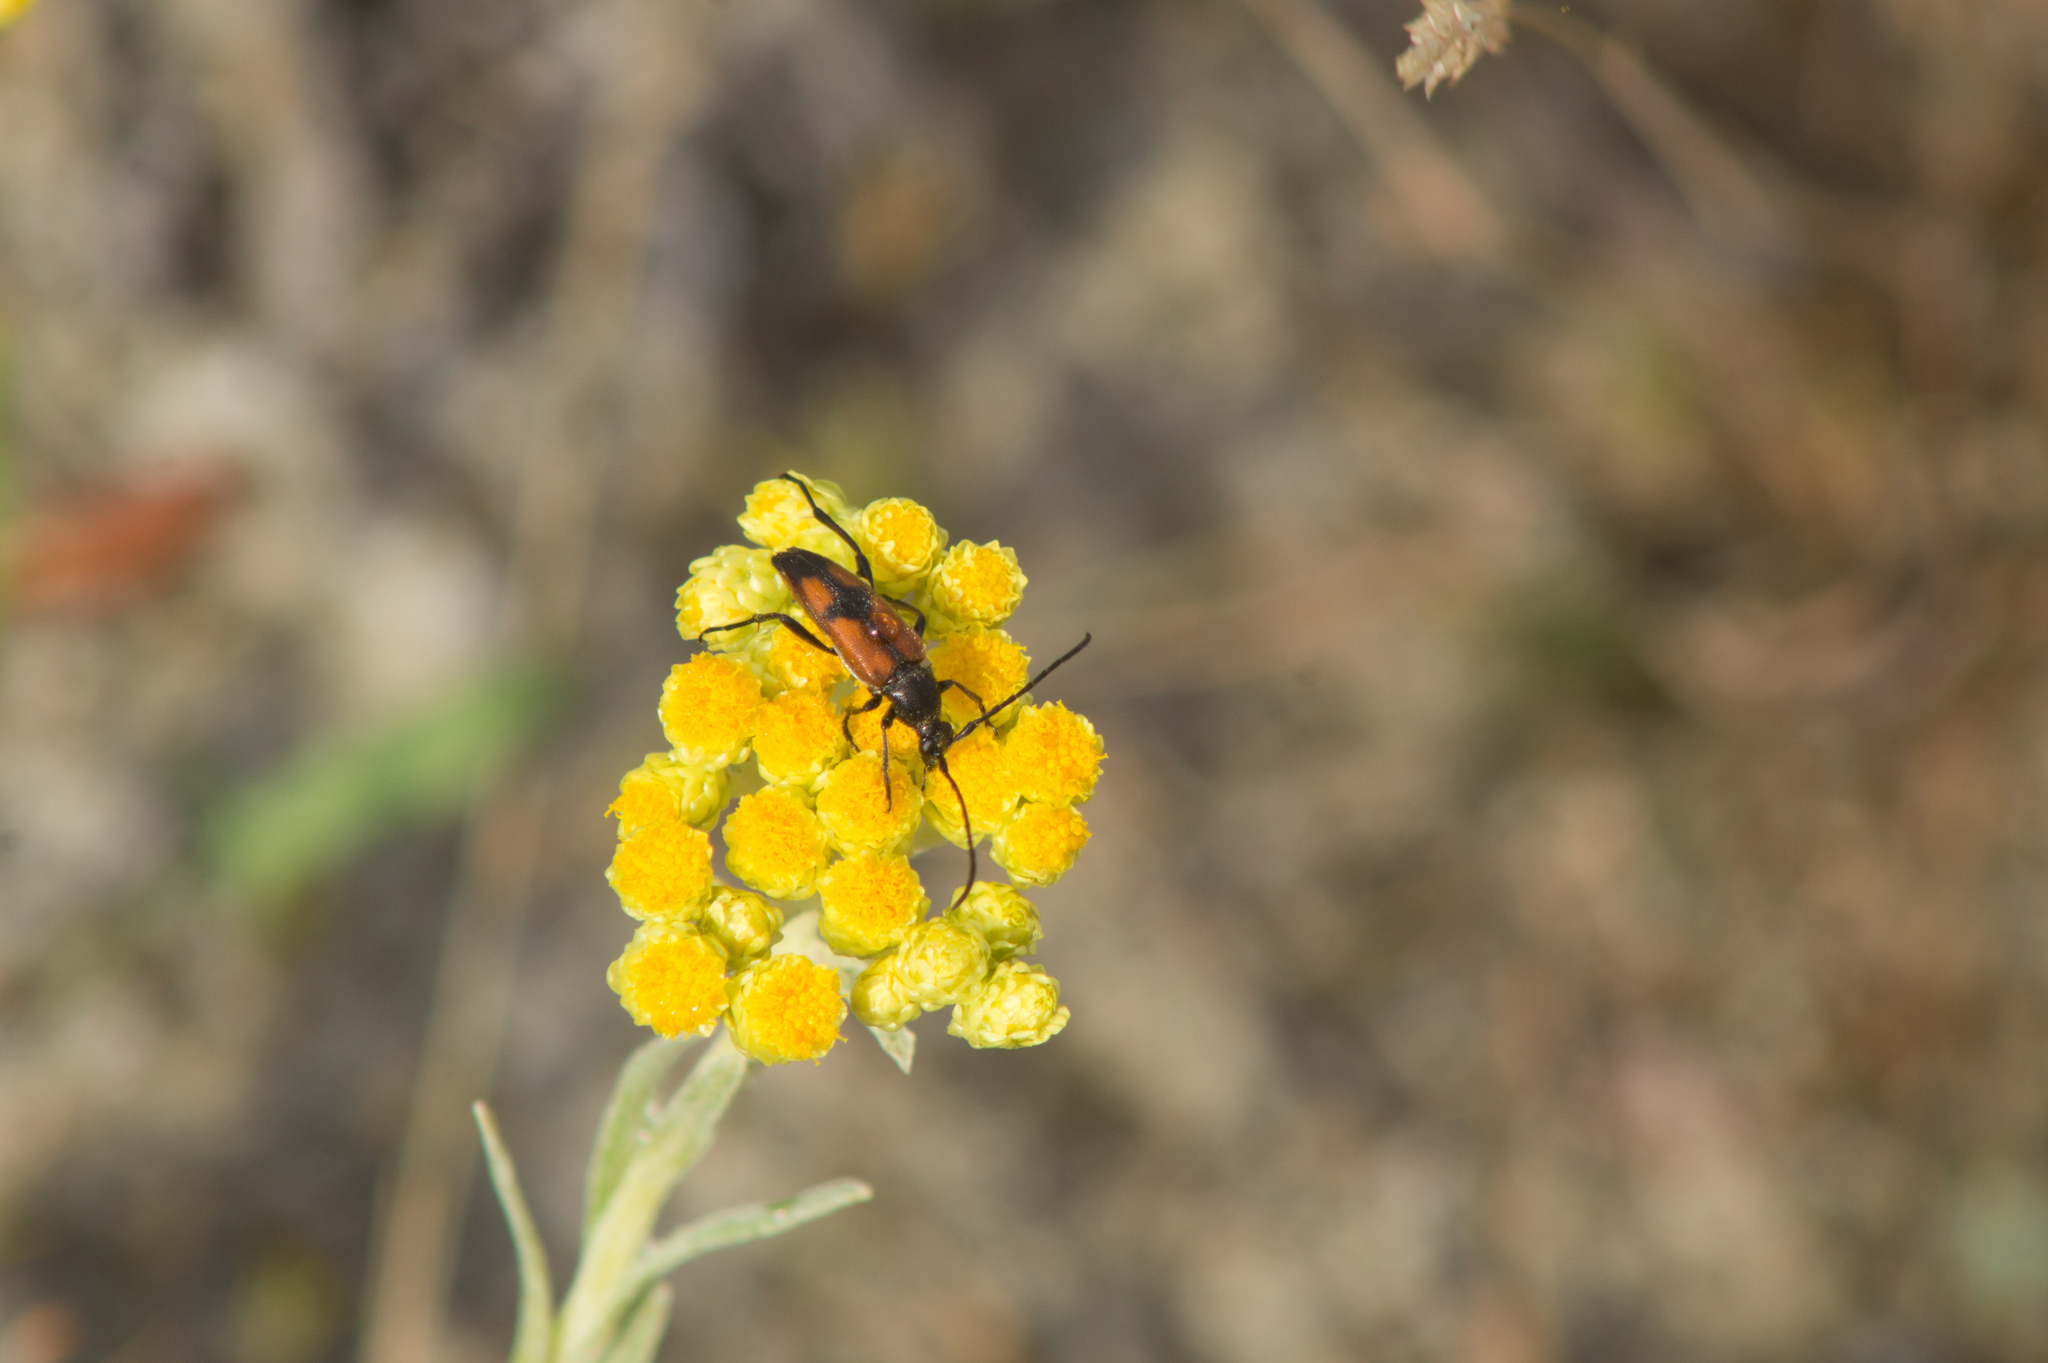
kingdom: Animalia
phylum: Arthropoda
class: Insecta
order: Coleoptera
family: Cerambycidae
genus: Stenurella
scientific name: Stenurella bifasciata
